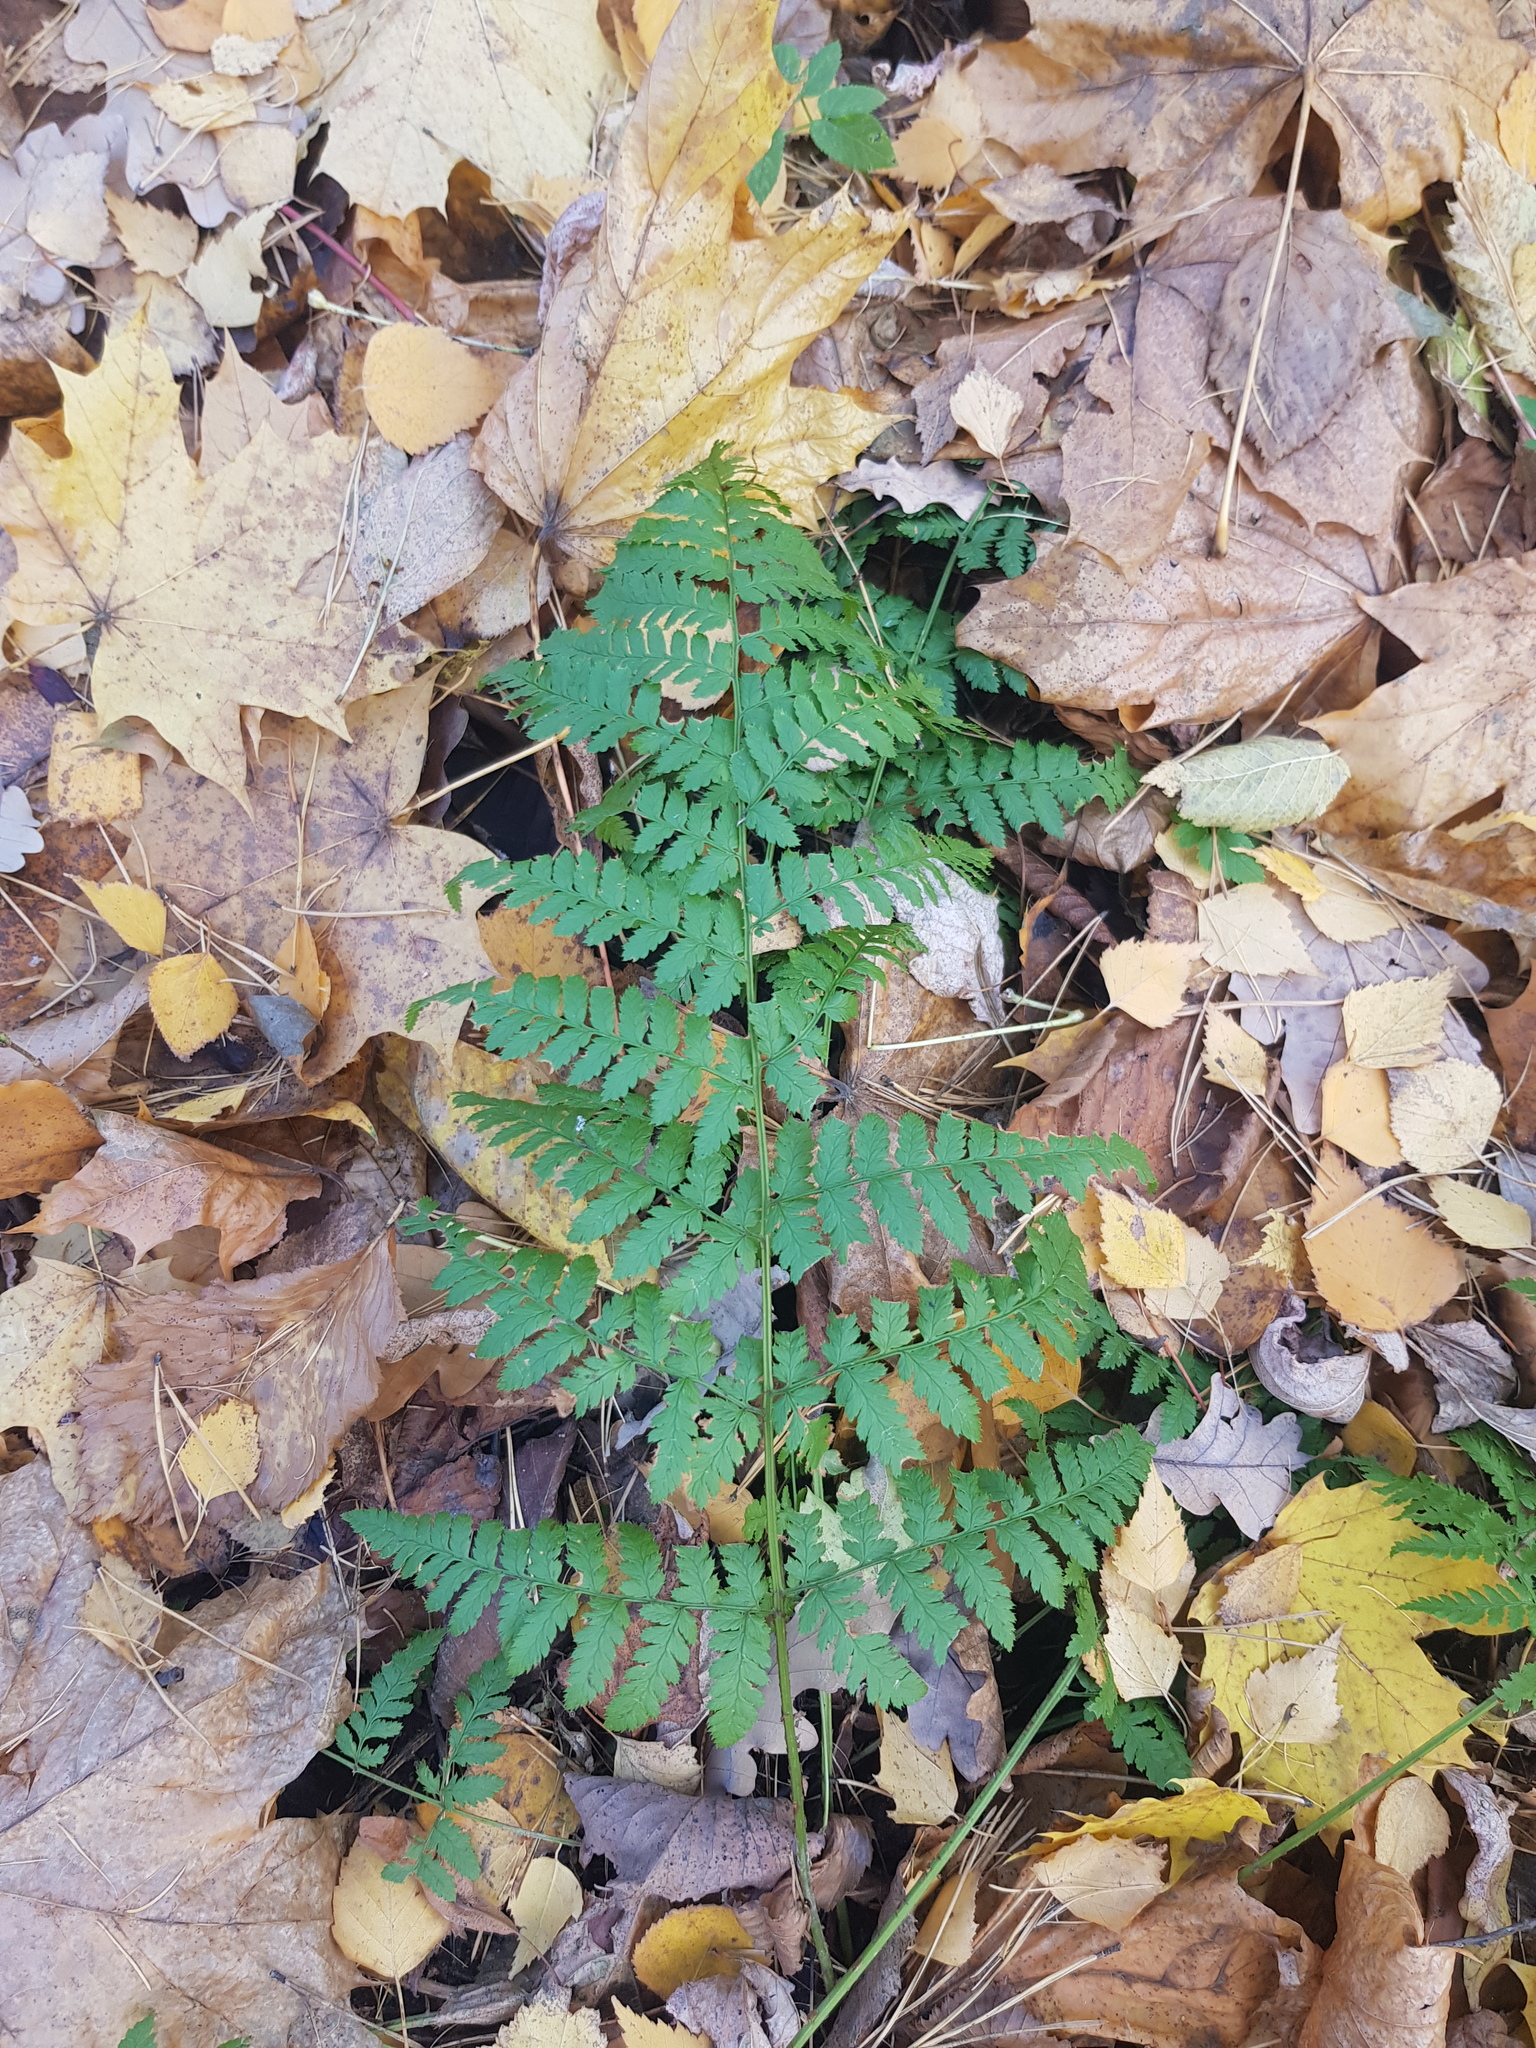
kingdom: Plantae
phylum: Tracheophyta
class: Polypodiopsida
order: Polypodiales
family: Dryopteridaceae
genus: Dryopteris
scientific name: Dryopteris carthusiana
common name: Narrow buckler-fern
